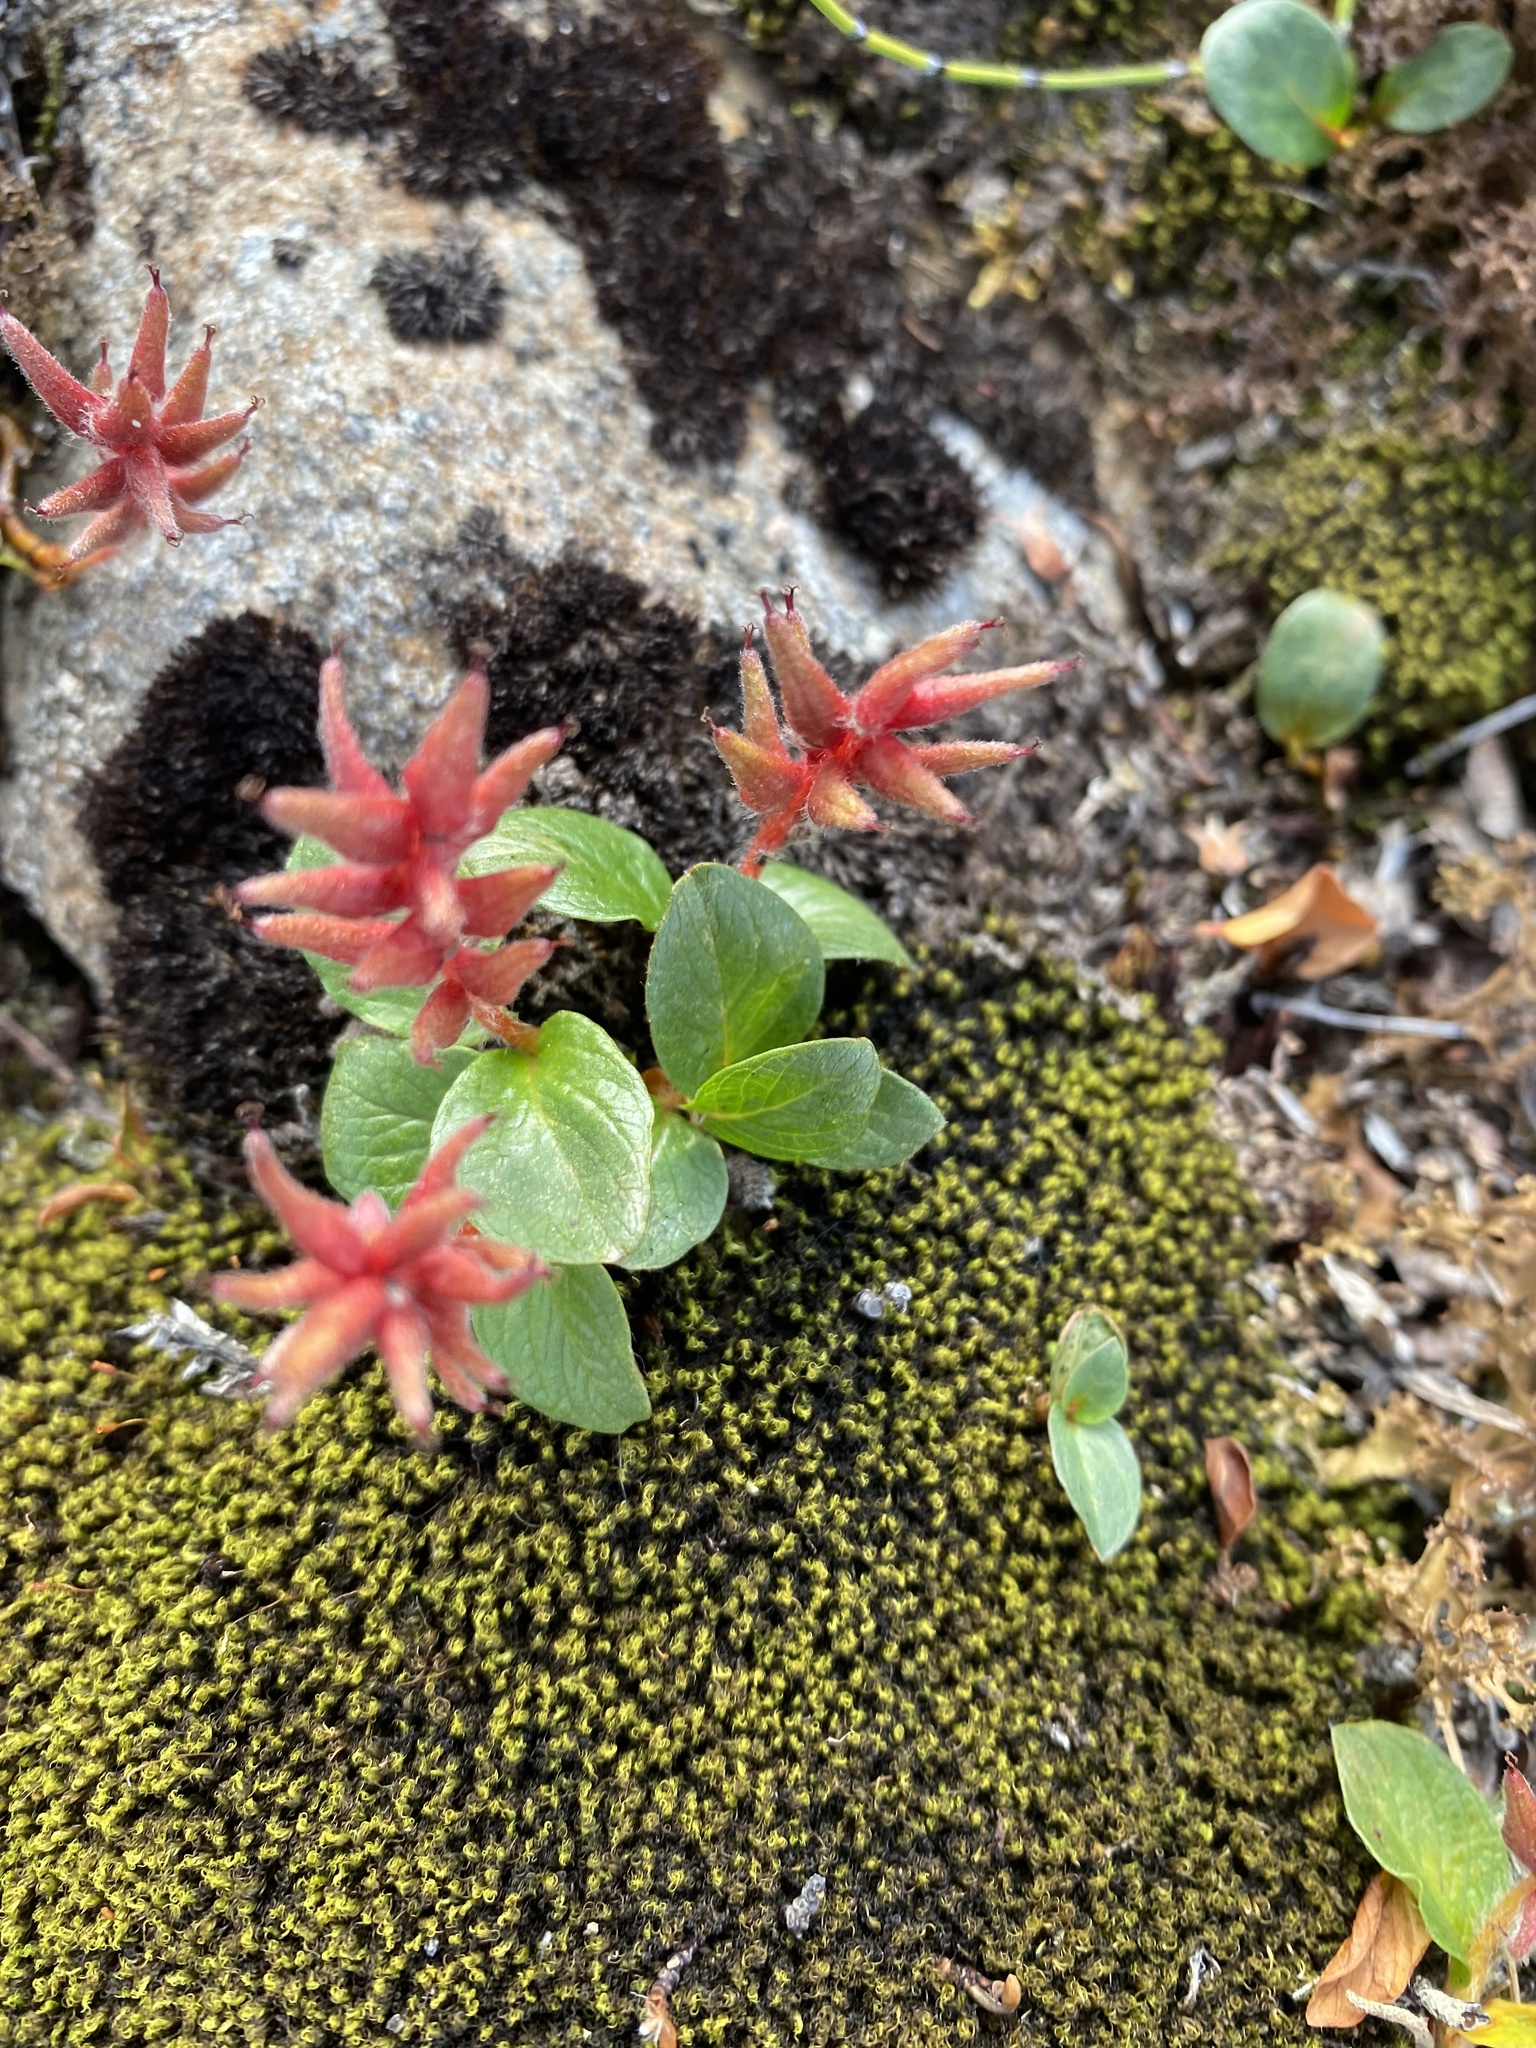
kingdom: Plantae
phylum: Tracheophyta
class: Magnoliopsida
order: Malpighiales
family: Salicaceae
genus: Salix
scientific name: Salix polaris
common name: Polar willow
